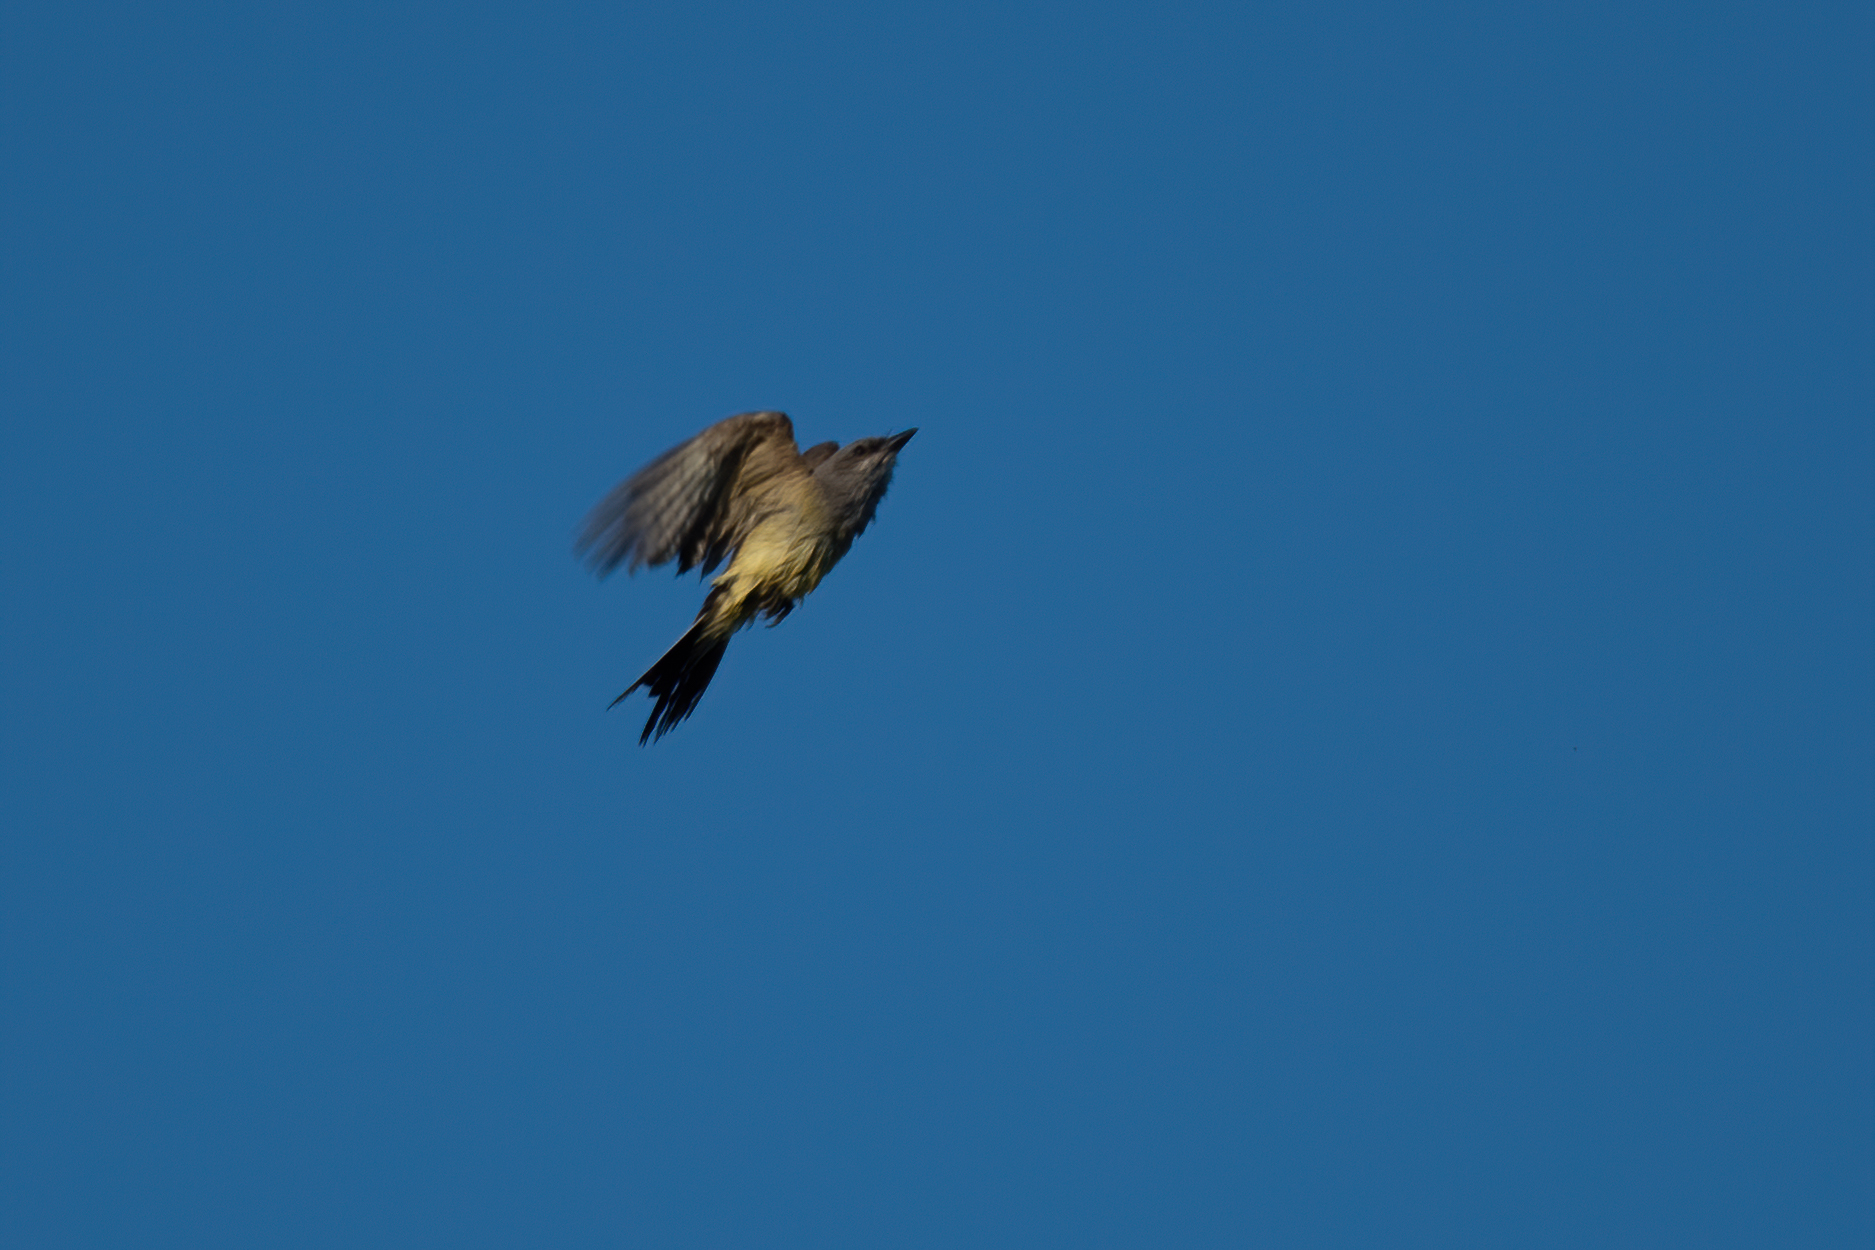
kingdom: Animalia
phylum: Chordata
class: Aves
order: Passeriformes
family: Tyrannidae
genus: Tyrannus
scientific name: Tyrannus verticalis
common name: Western kingbird
